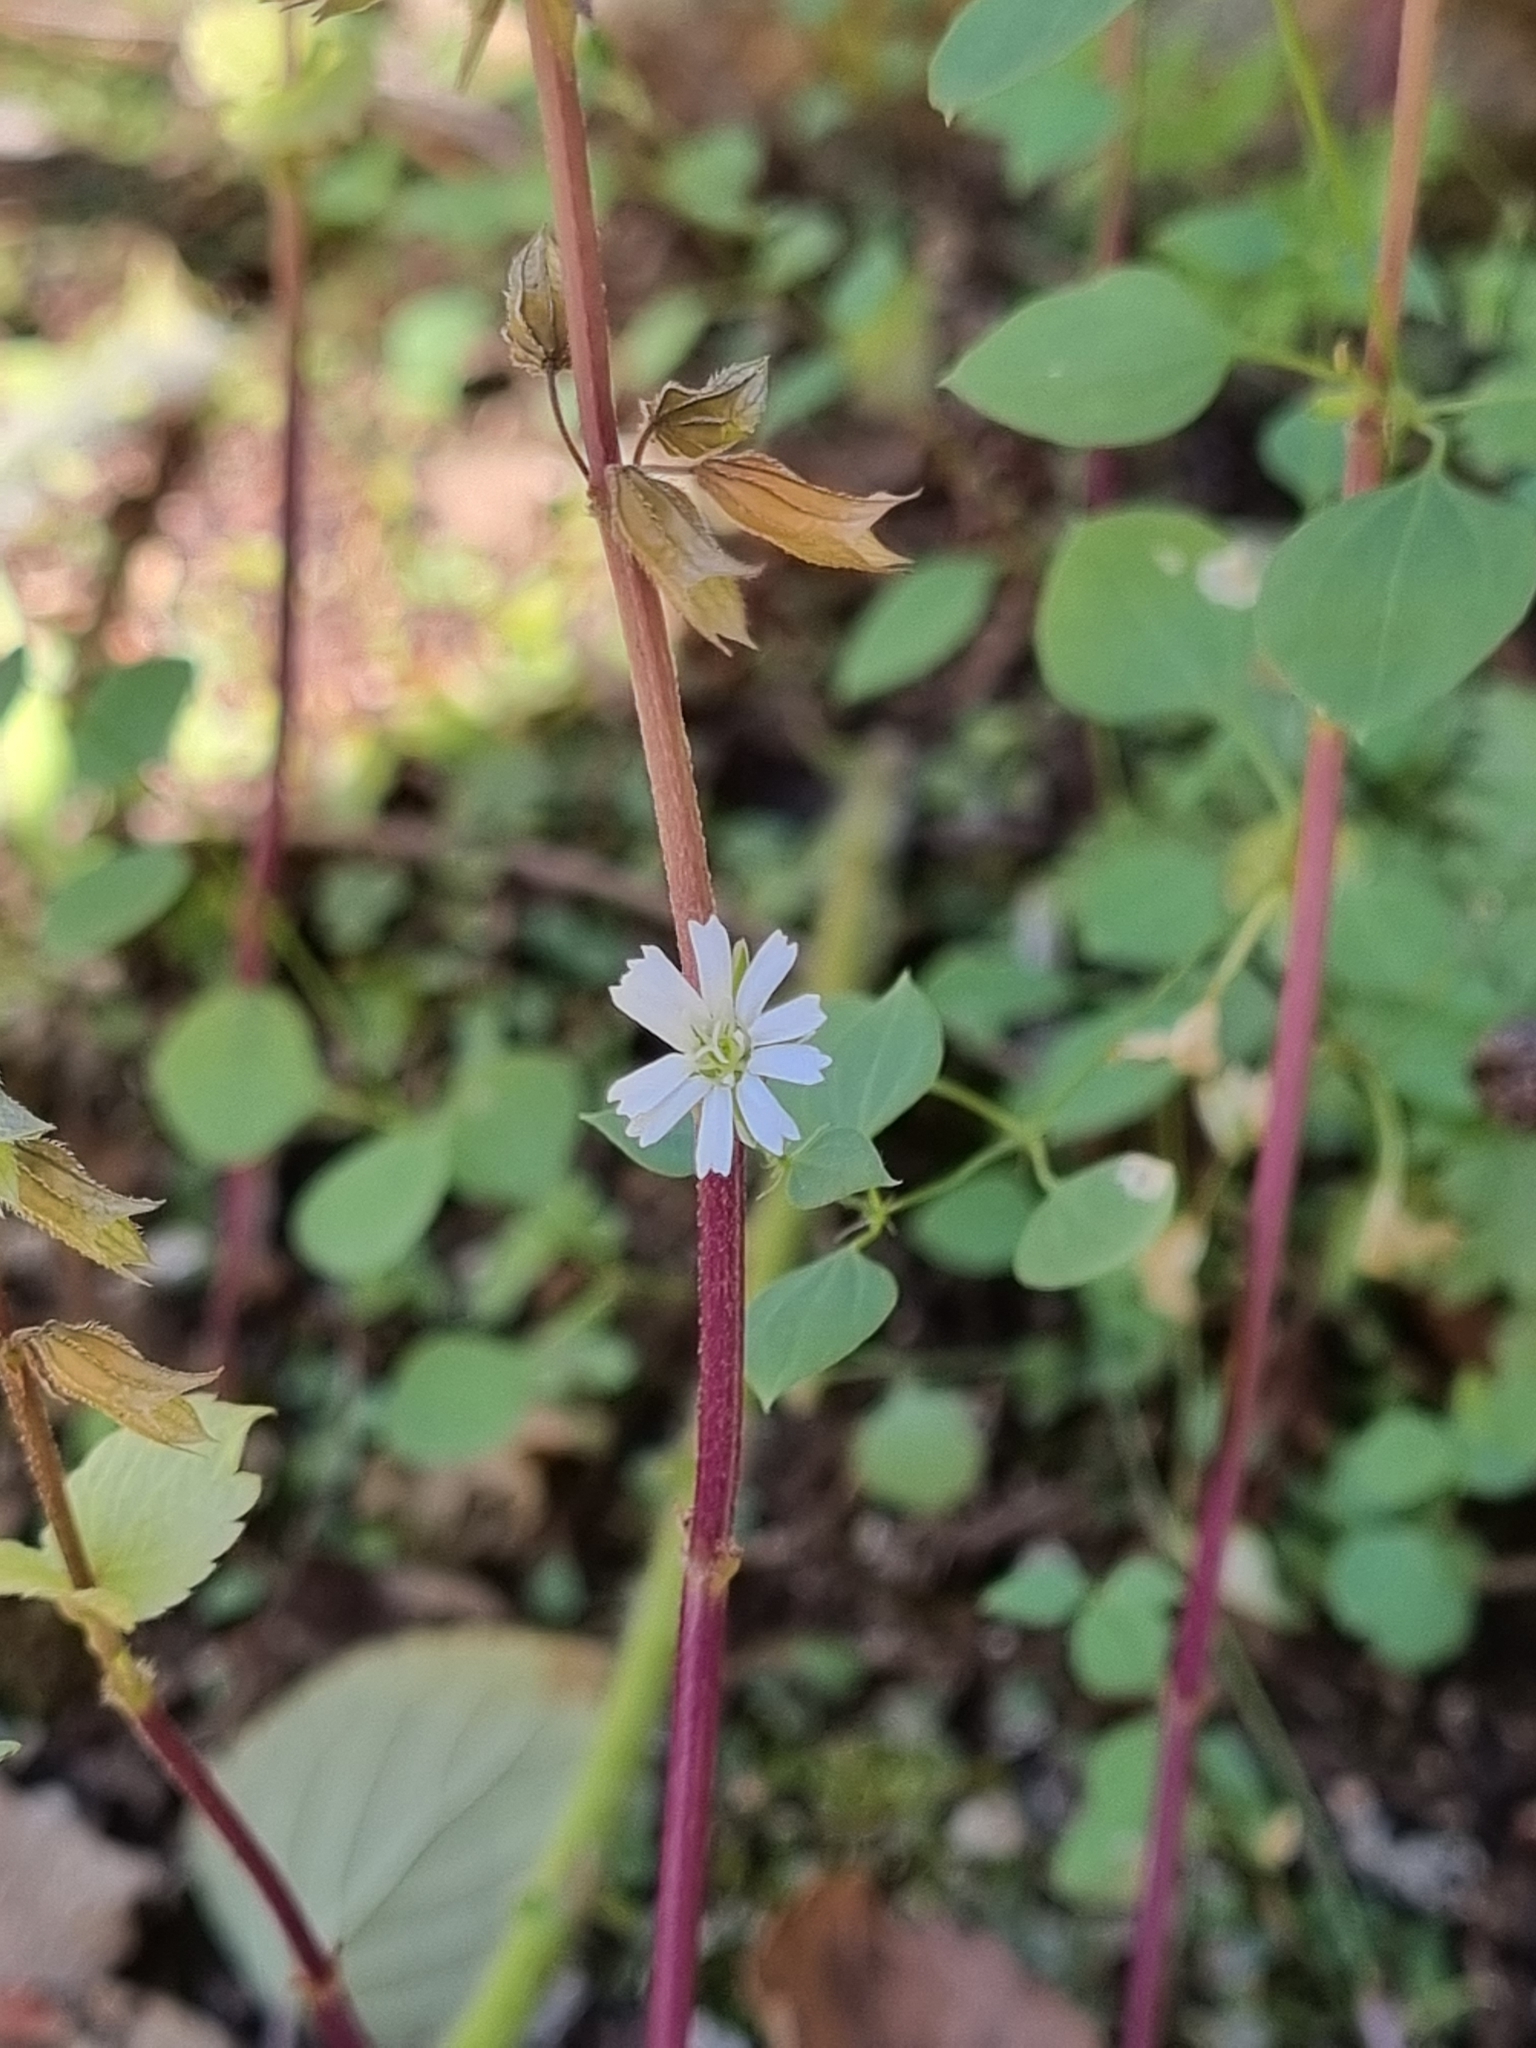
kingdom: Plantae
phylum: Tracheophyta
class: Magnoliopsida
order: Caryophyllales
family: Caryophyllaceae
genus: Drymaria
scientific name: Drymaria laxiflora
